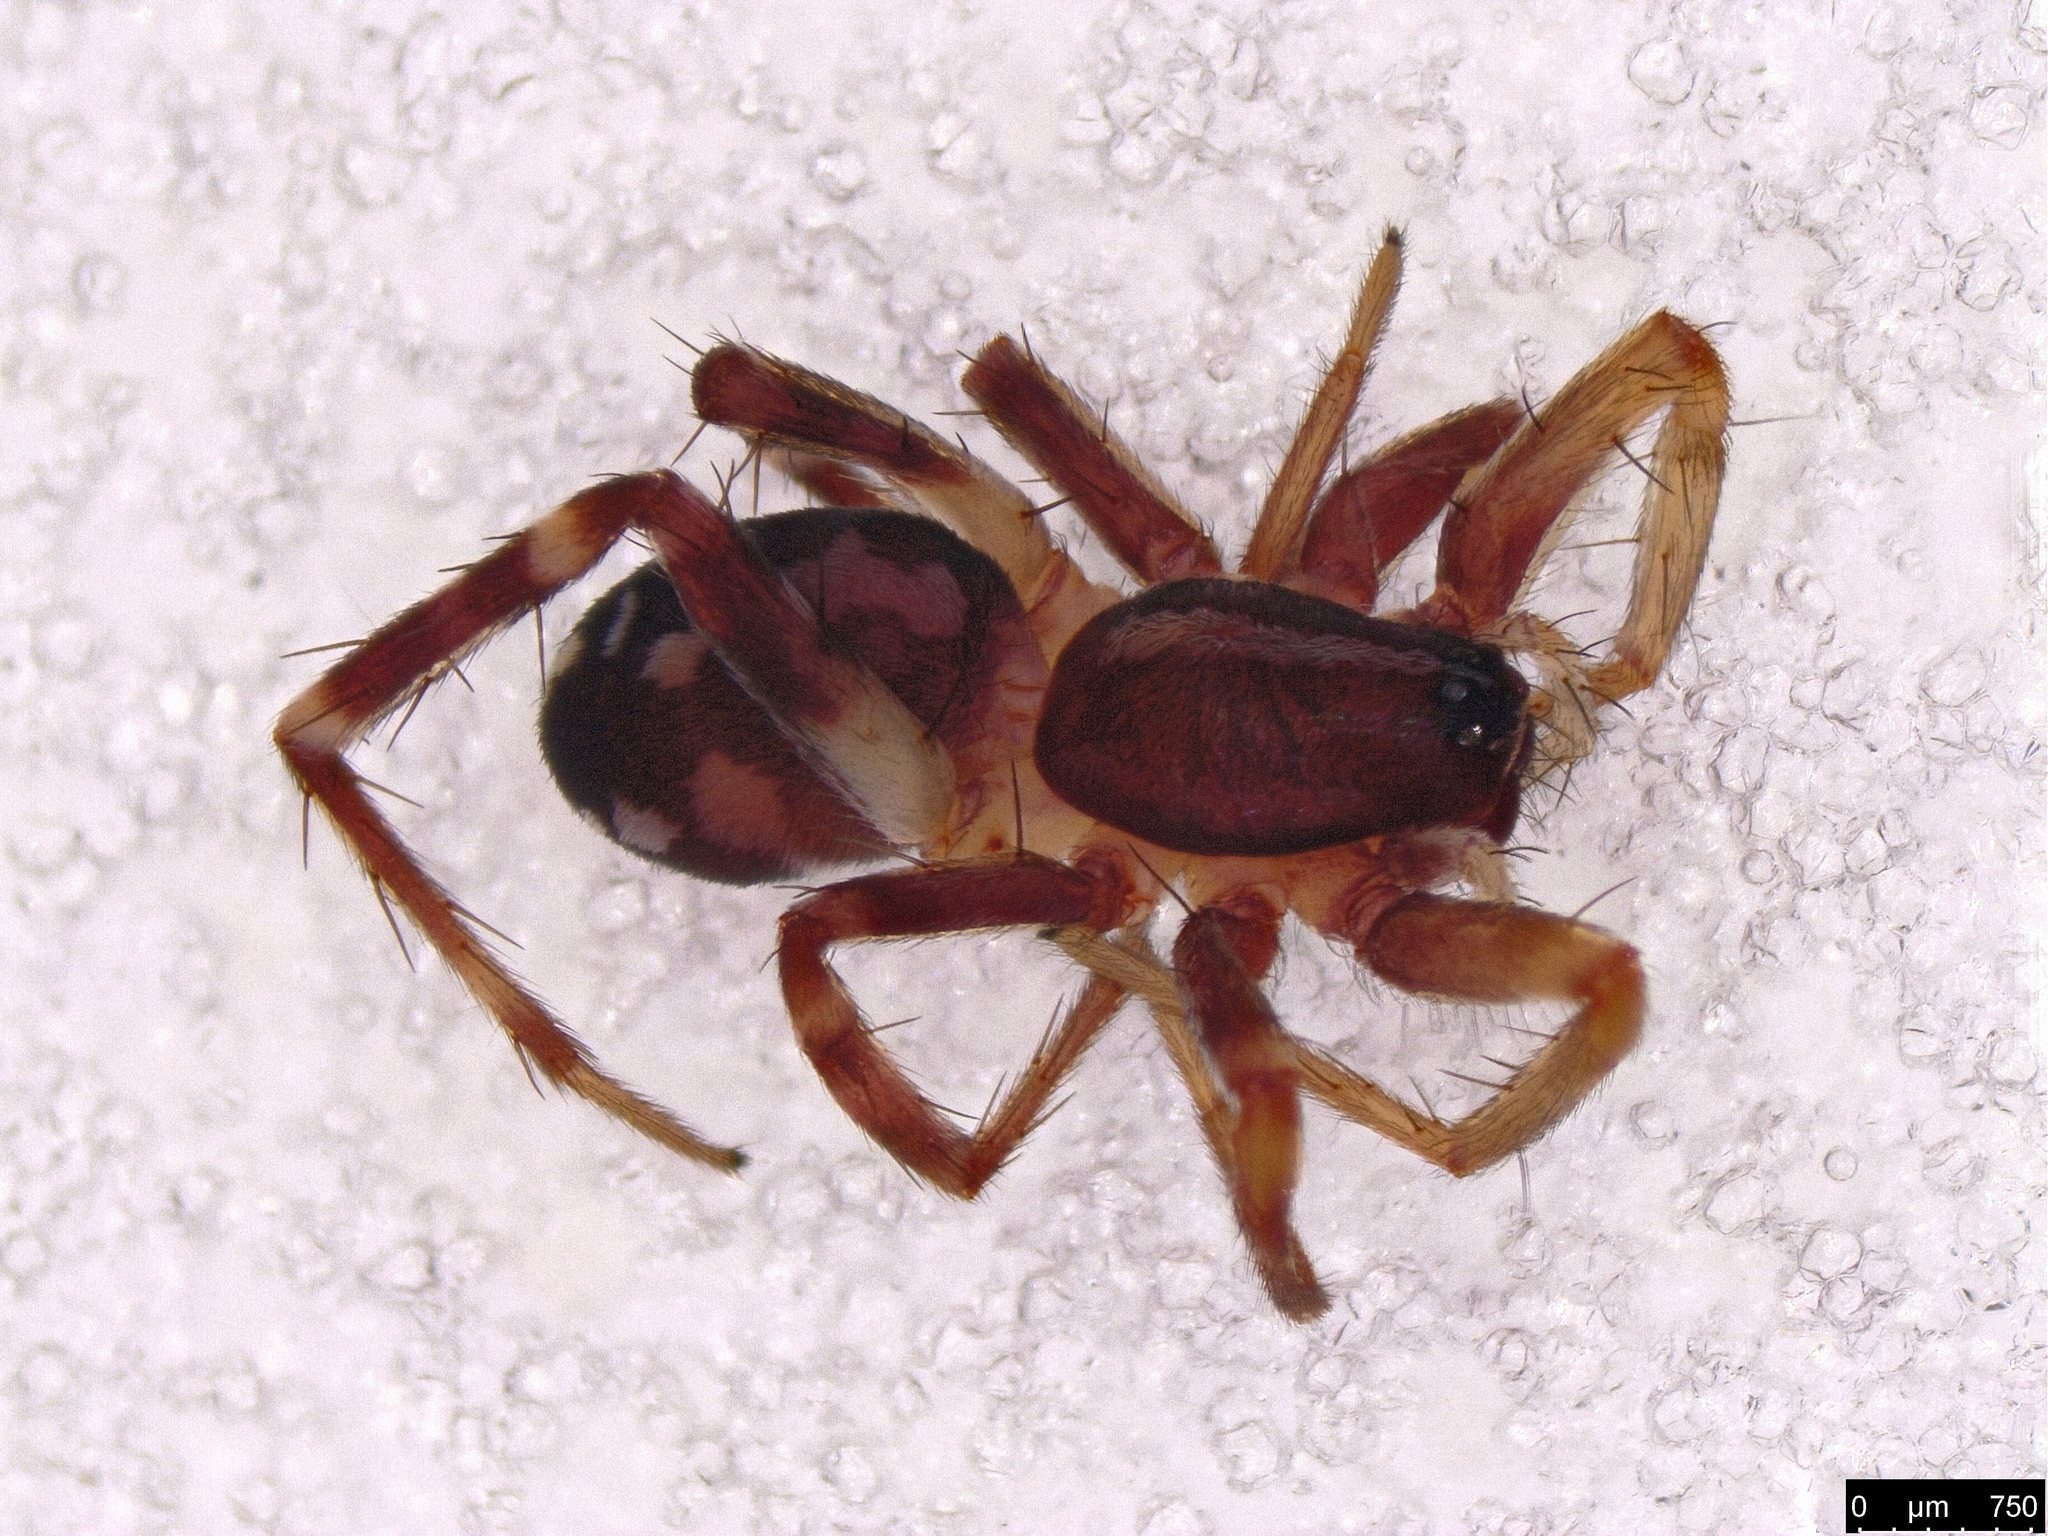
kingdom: Animalia
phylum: Arthropoda
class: Arachnida
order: Araneae
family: Corinnidae
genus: Nyssus
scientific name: Nyssus coloripes
